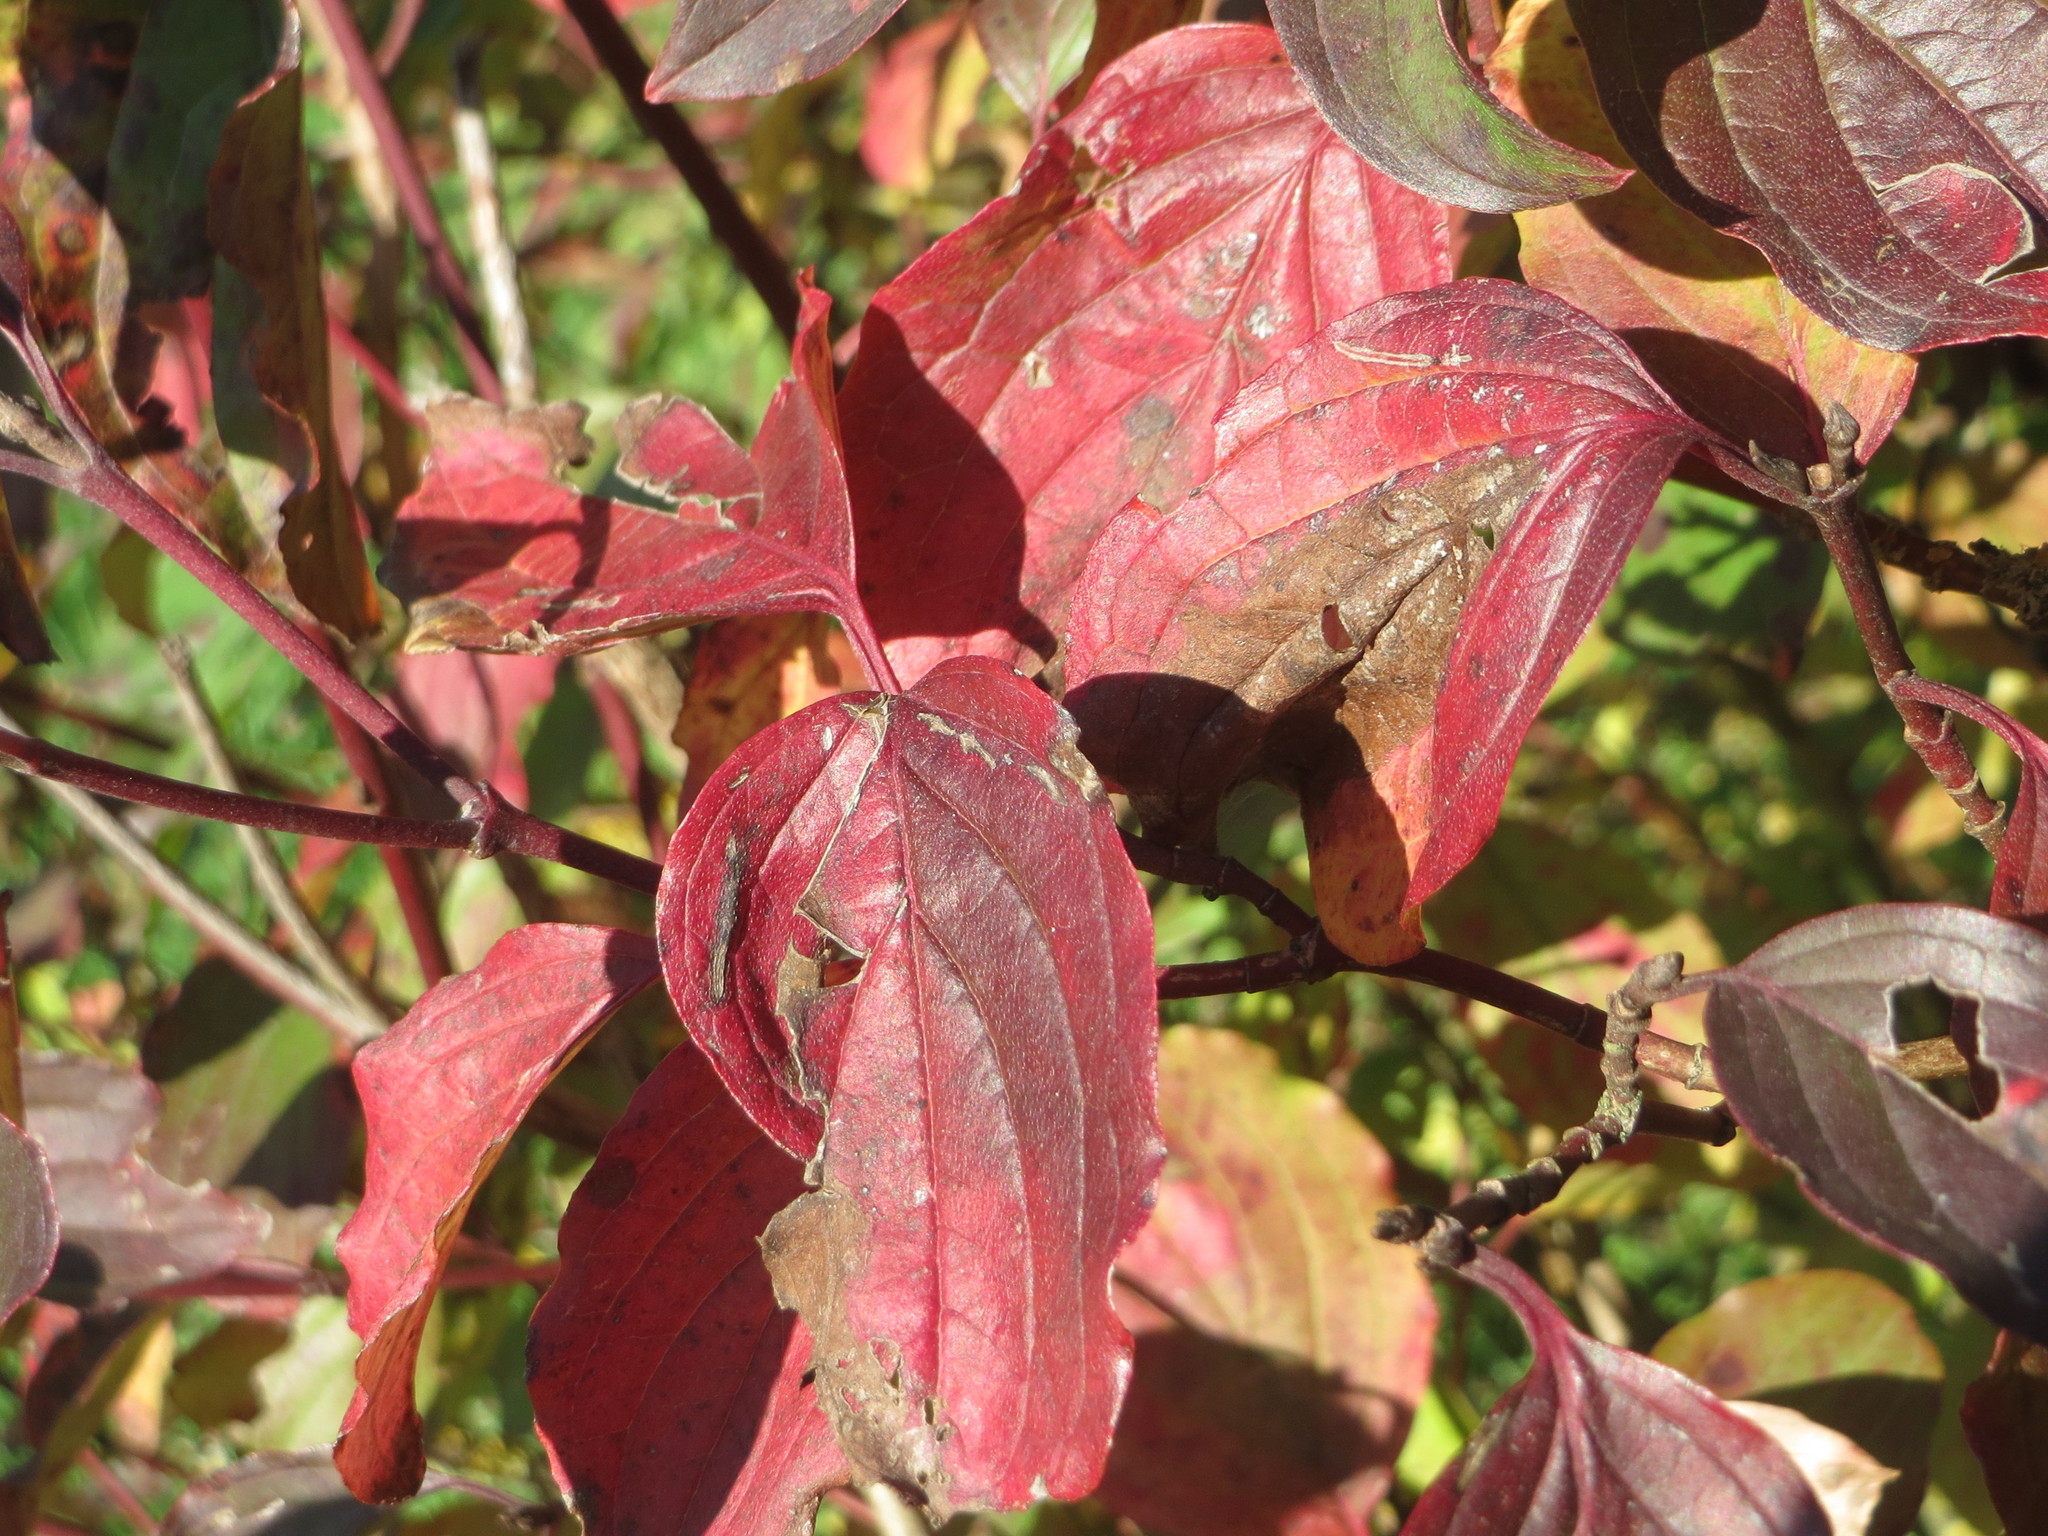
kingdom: Plantae
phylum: Tracheophyta
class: Magnoliopsida
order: Cornales
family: Cornaceae
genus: Cornus
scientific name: Cornus sanguinea
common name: Dogwood
